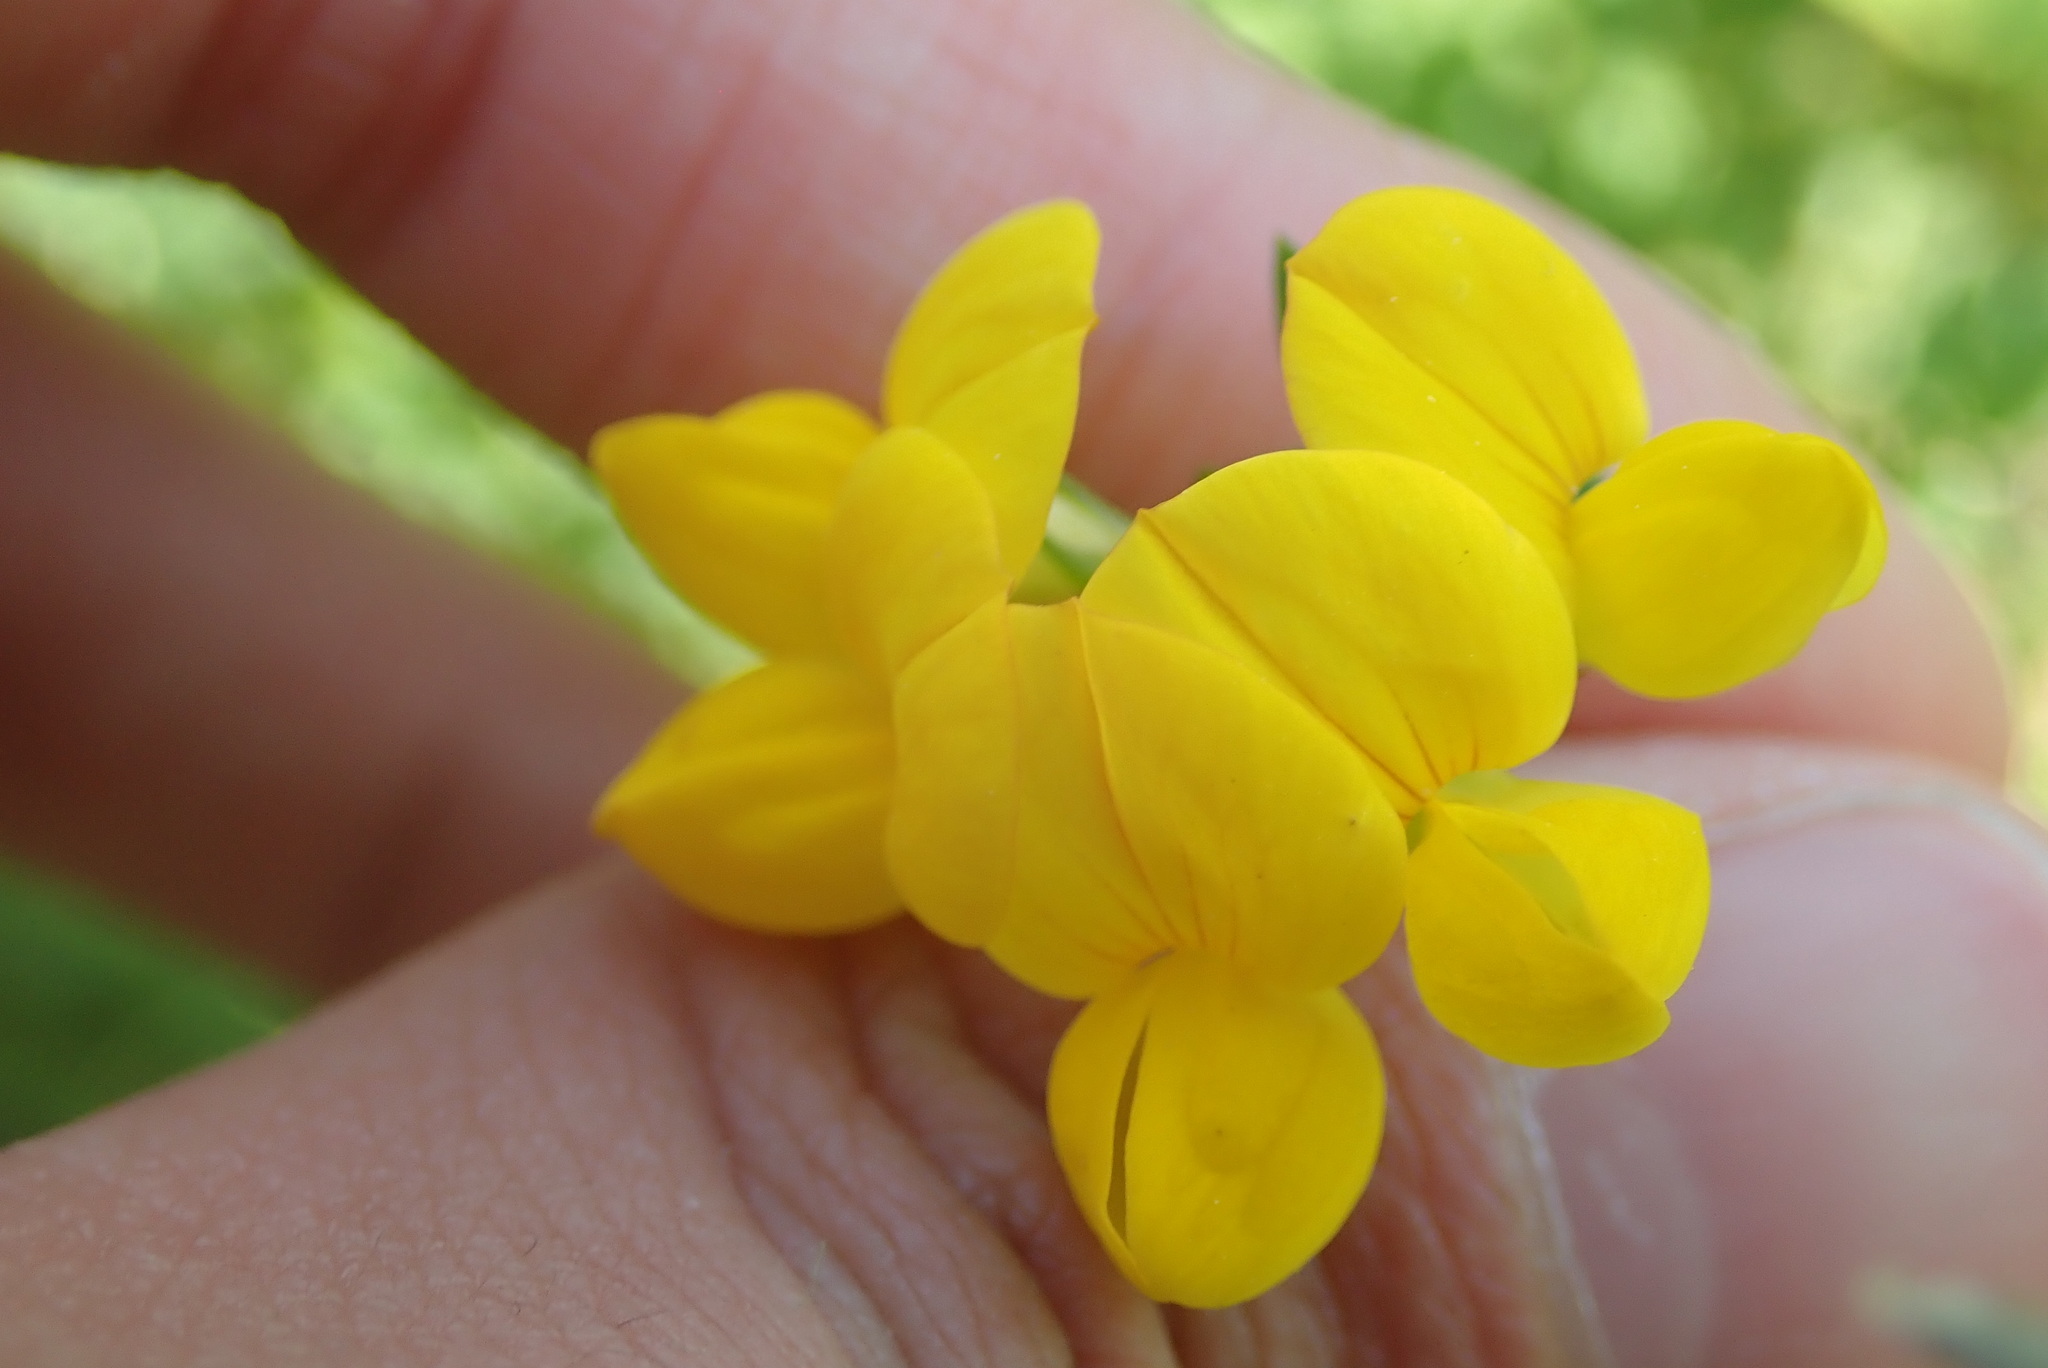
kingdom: Plantae
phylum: Tracheophyta
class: Magnoliopsida
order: Fabales
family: Fabaceae
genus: Lotus
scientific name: Lotus corniculatus
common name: Common bird's-foot-trefoil
